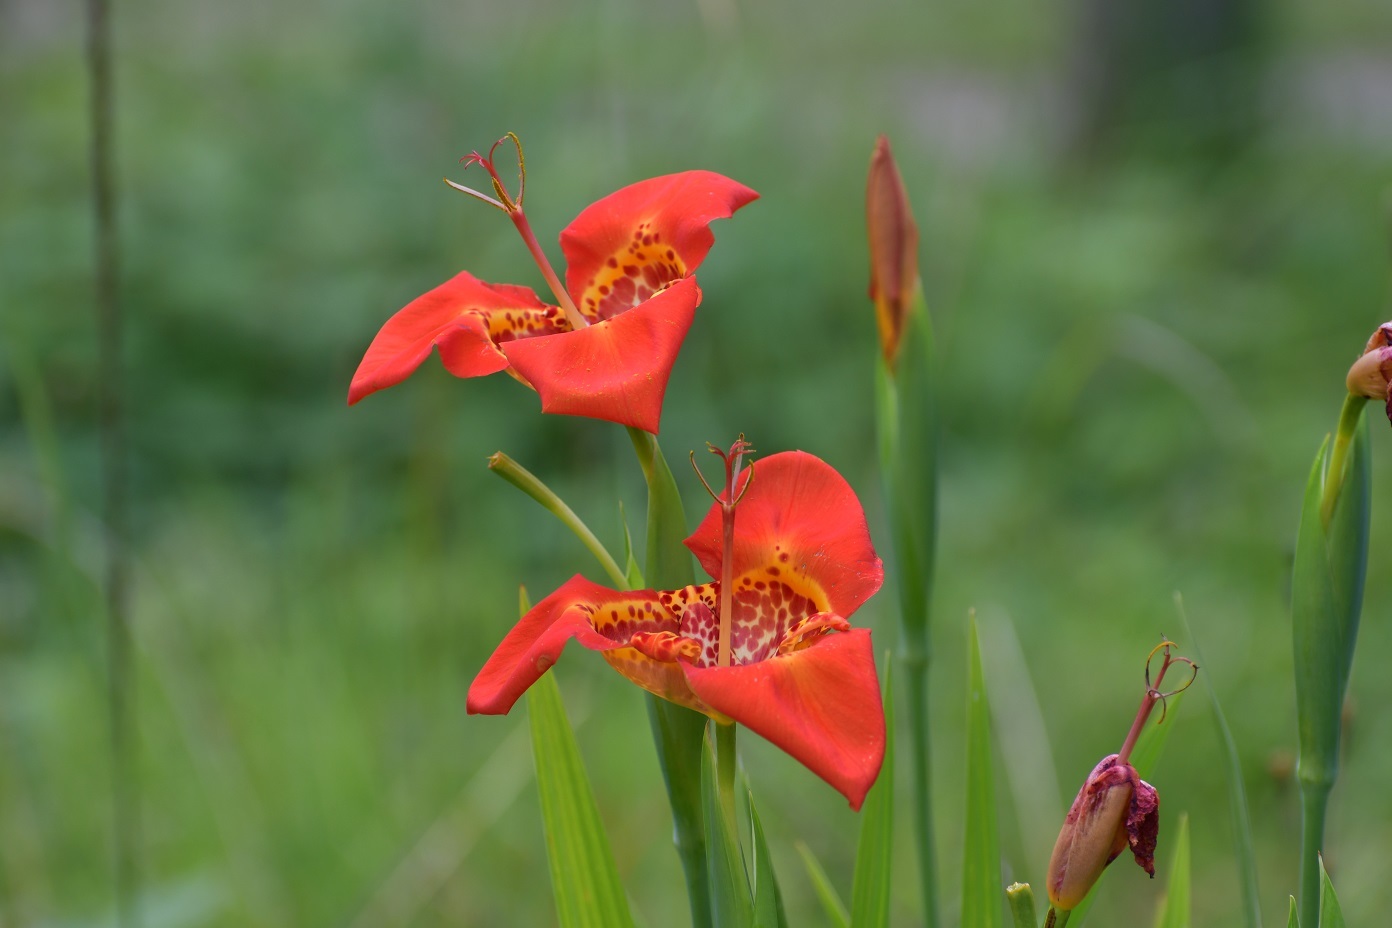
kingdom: Plantae
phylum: Tracheophyta
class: Liliopsida
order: Asparagales
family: Iridaceae
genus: Tigridia
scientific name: Tigridia pavonia
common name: Peacock-flower
